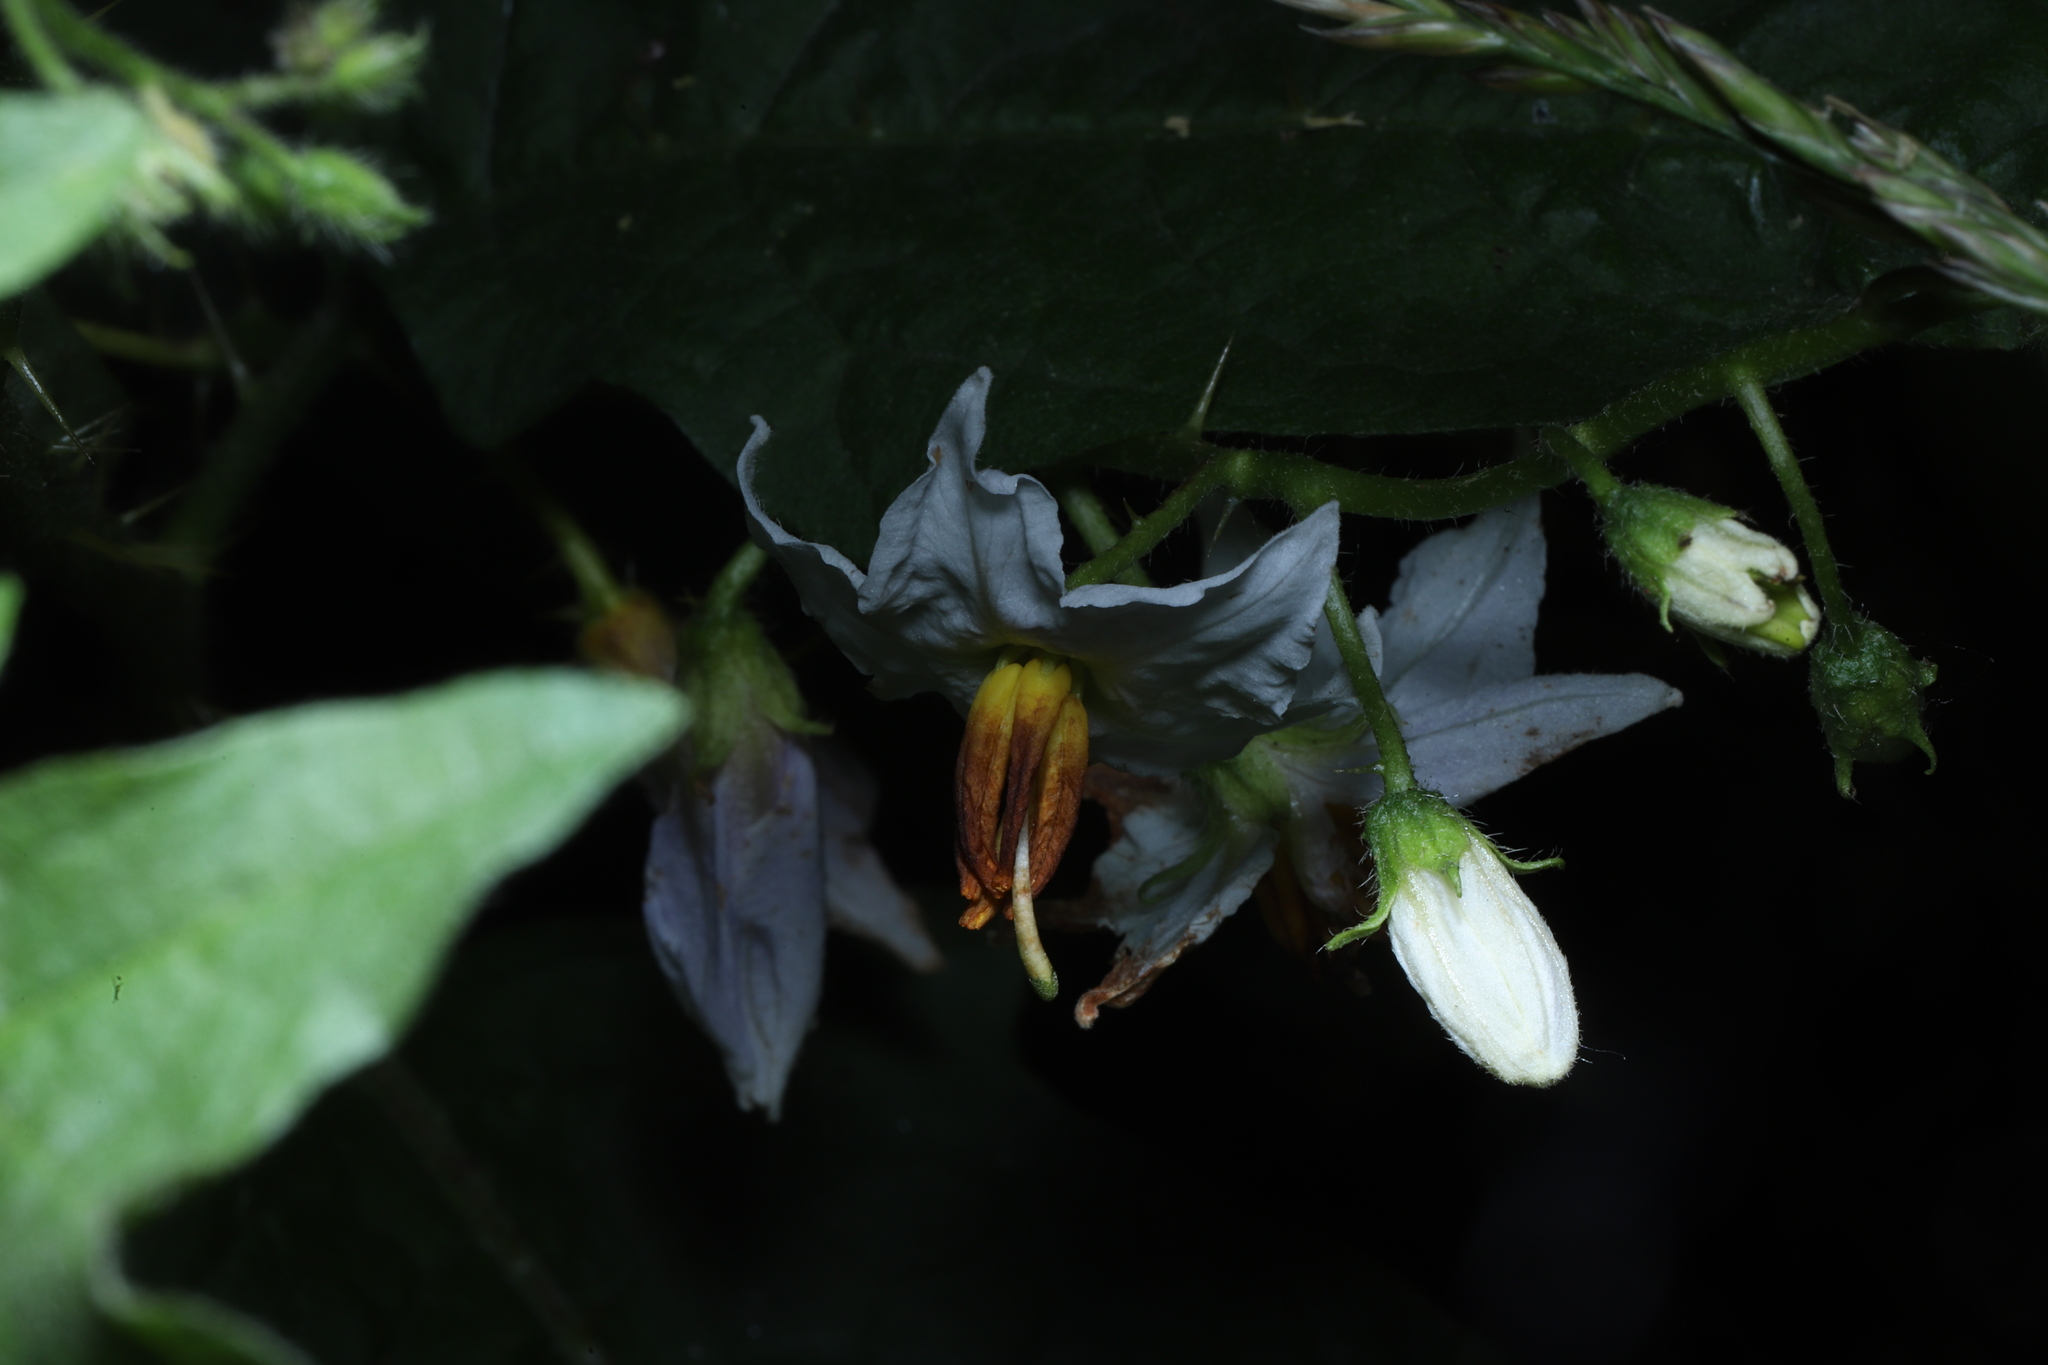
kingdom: Plantae
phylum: Tracheophyta
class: Magnoliopsida
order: Solanales
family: Solanaceae
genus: Solanum
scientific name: Solanum carolinense
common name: Horse-nettle
